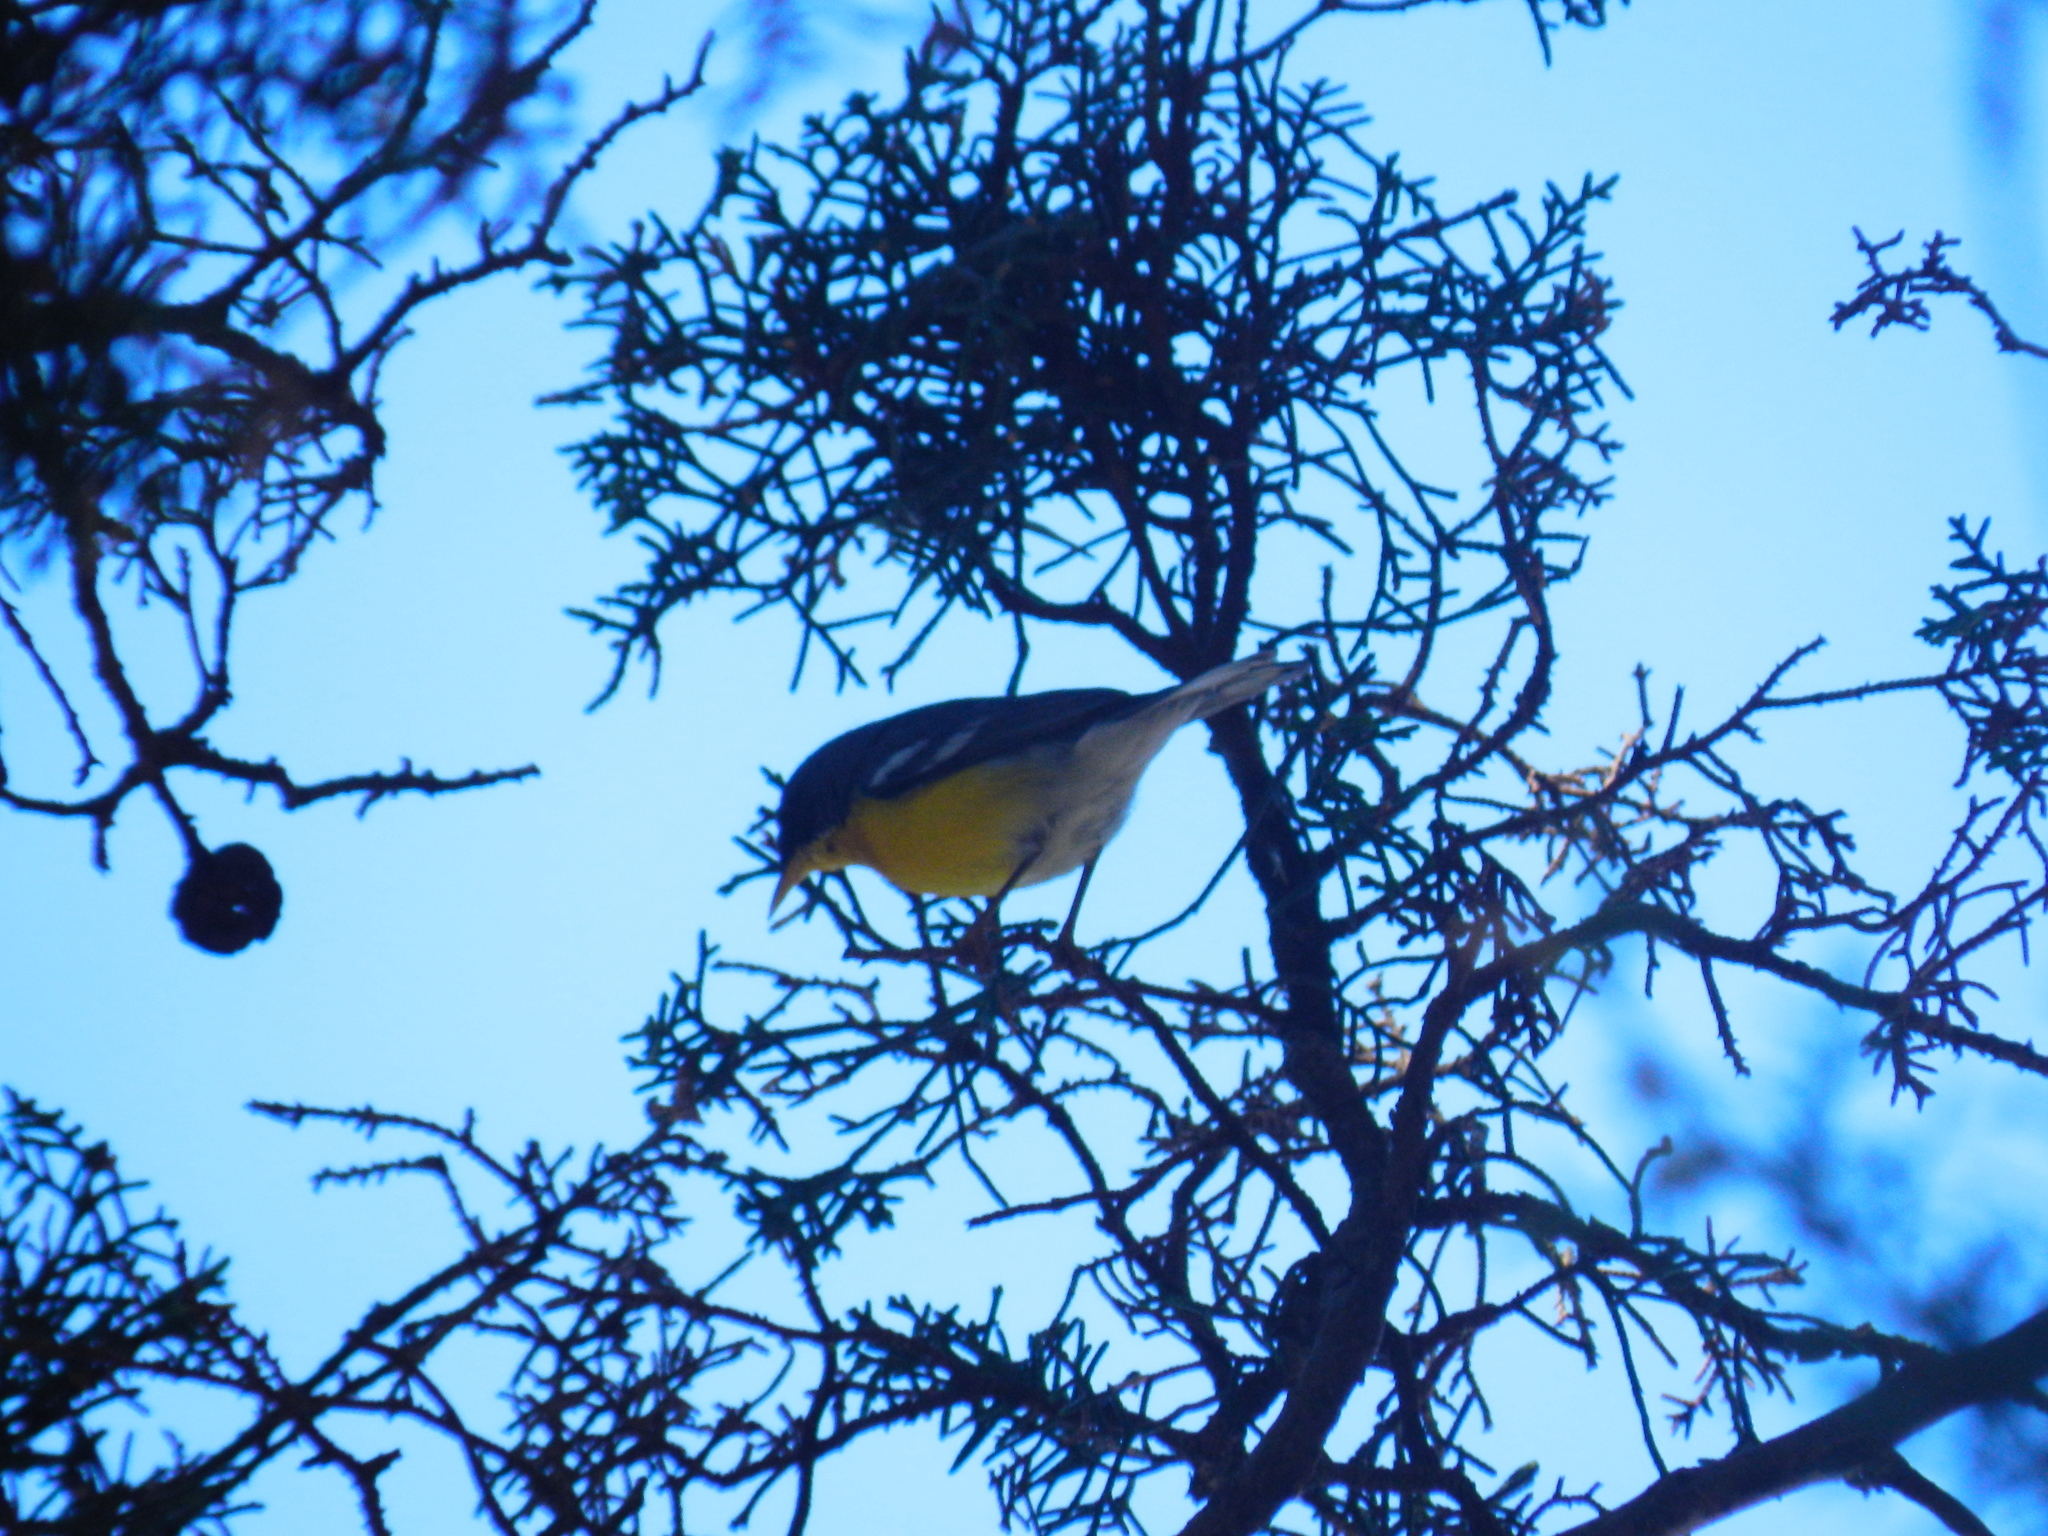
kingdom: Animalia
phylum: Chordata
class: Aves
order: Passeriformes
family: Parulidae
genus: Setophaga
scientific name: Setophaga pitiayumi
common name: Tropical parula
